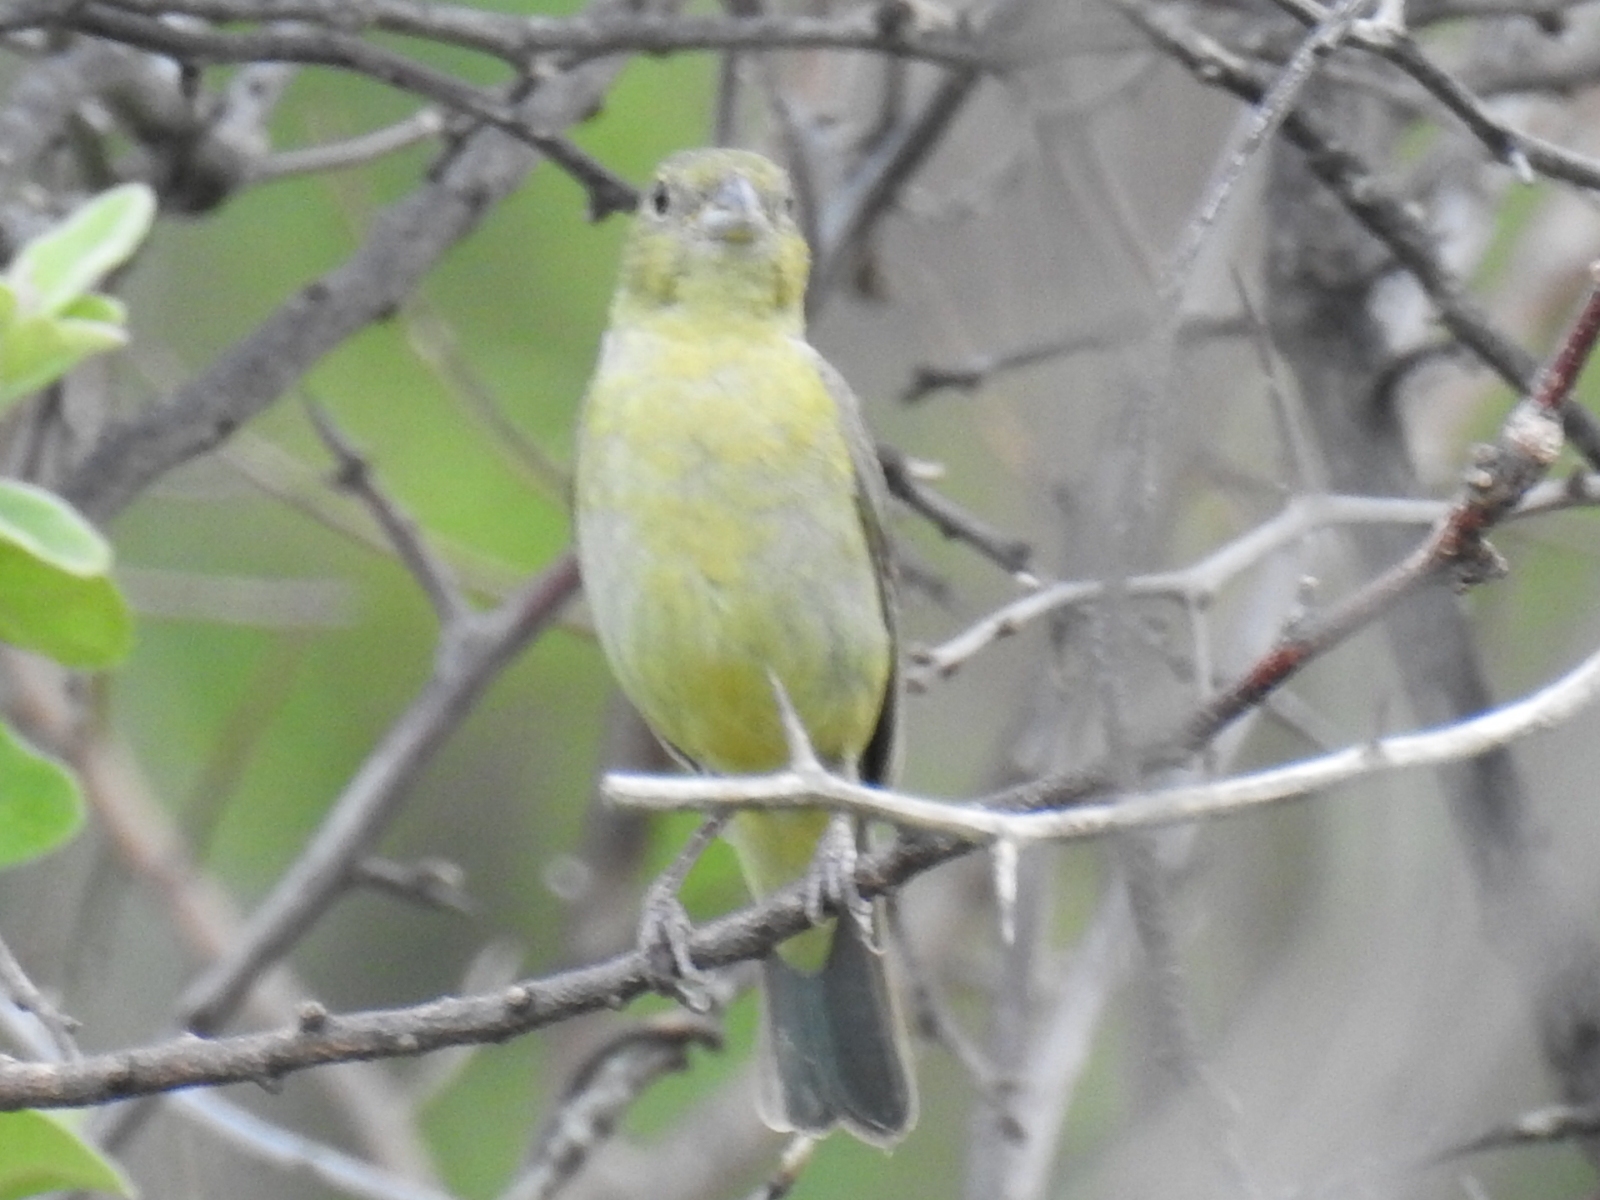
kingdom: Animalia
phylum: Chordata
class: Aves
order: Passeriformes
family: Cardinalidae
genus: Passerina
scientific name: Passerina ciris
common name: Painted bunting
